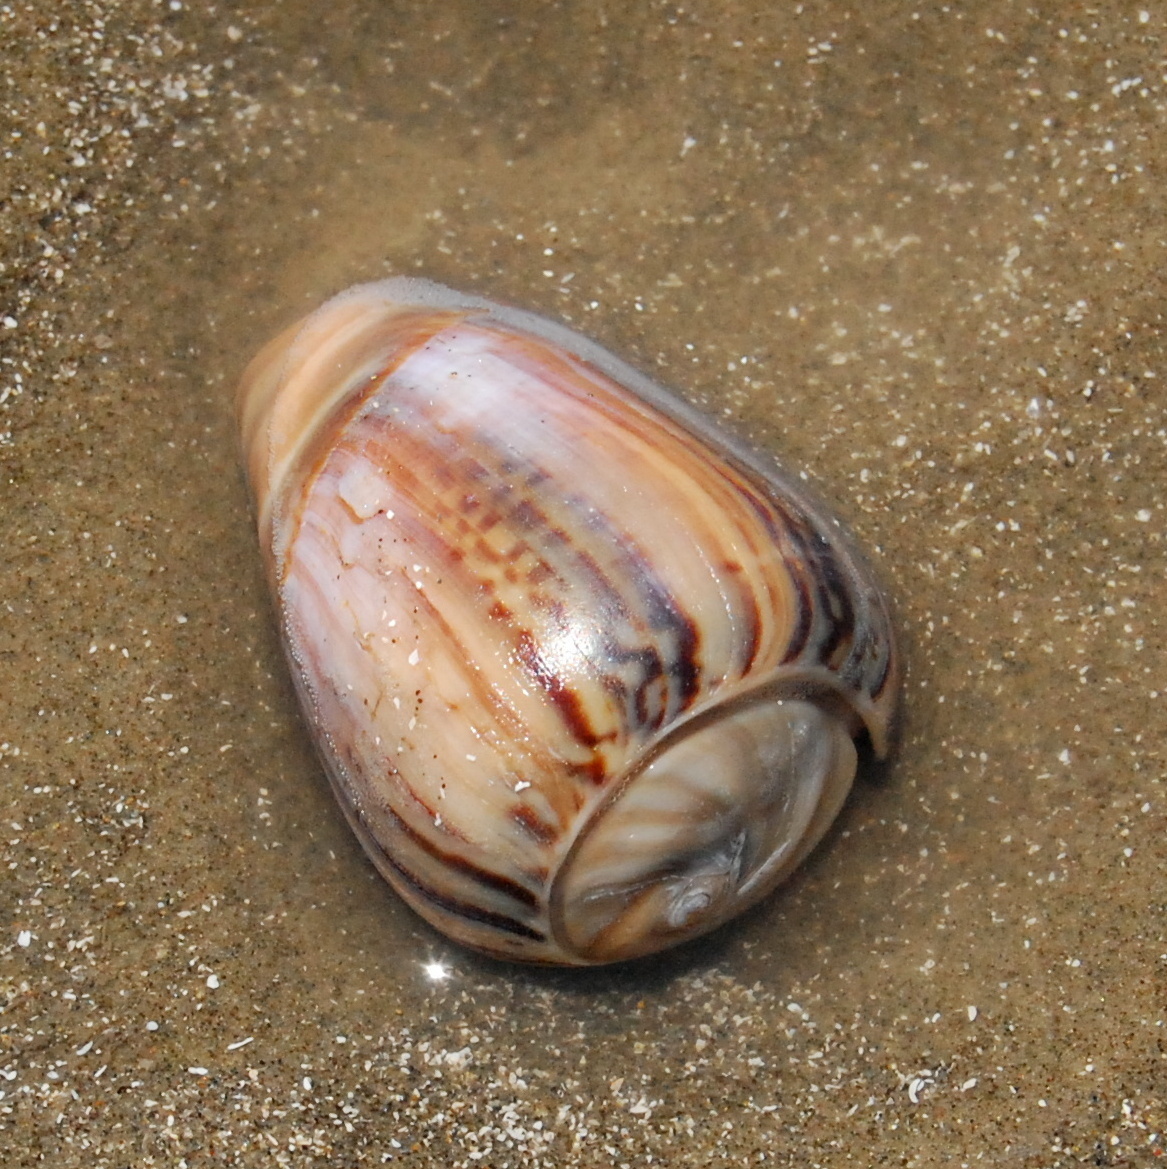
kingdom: Animalia
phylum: Mollusca
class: Gastropoda
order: Neogastropoda
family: Olividae
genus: Olivancillaria
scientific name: Olivancillaria urceus
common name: Bear ancilla
